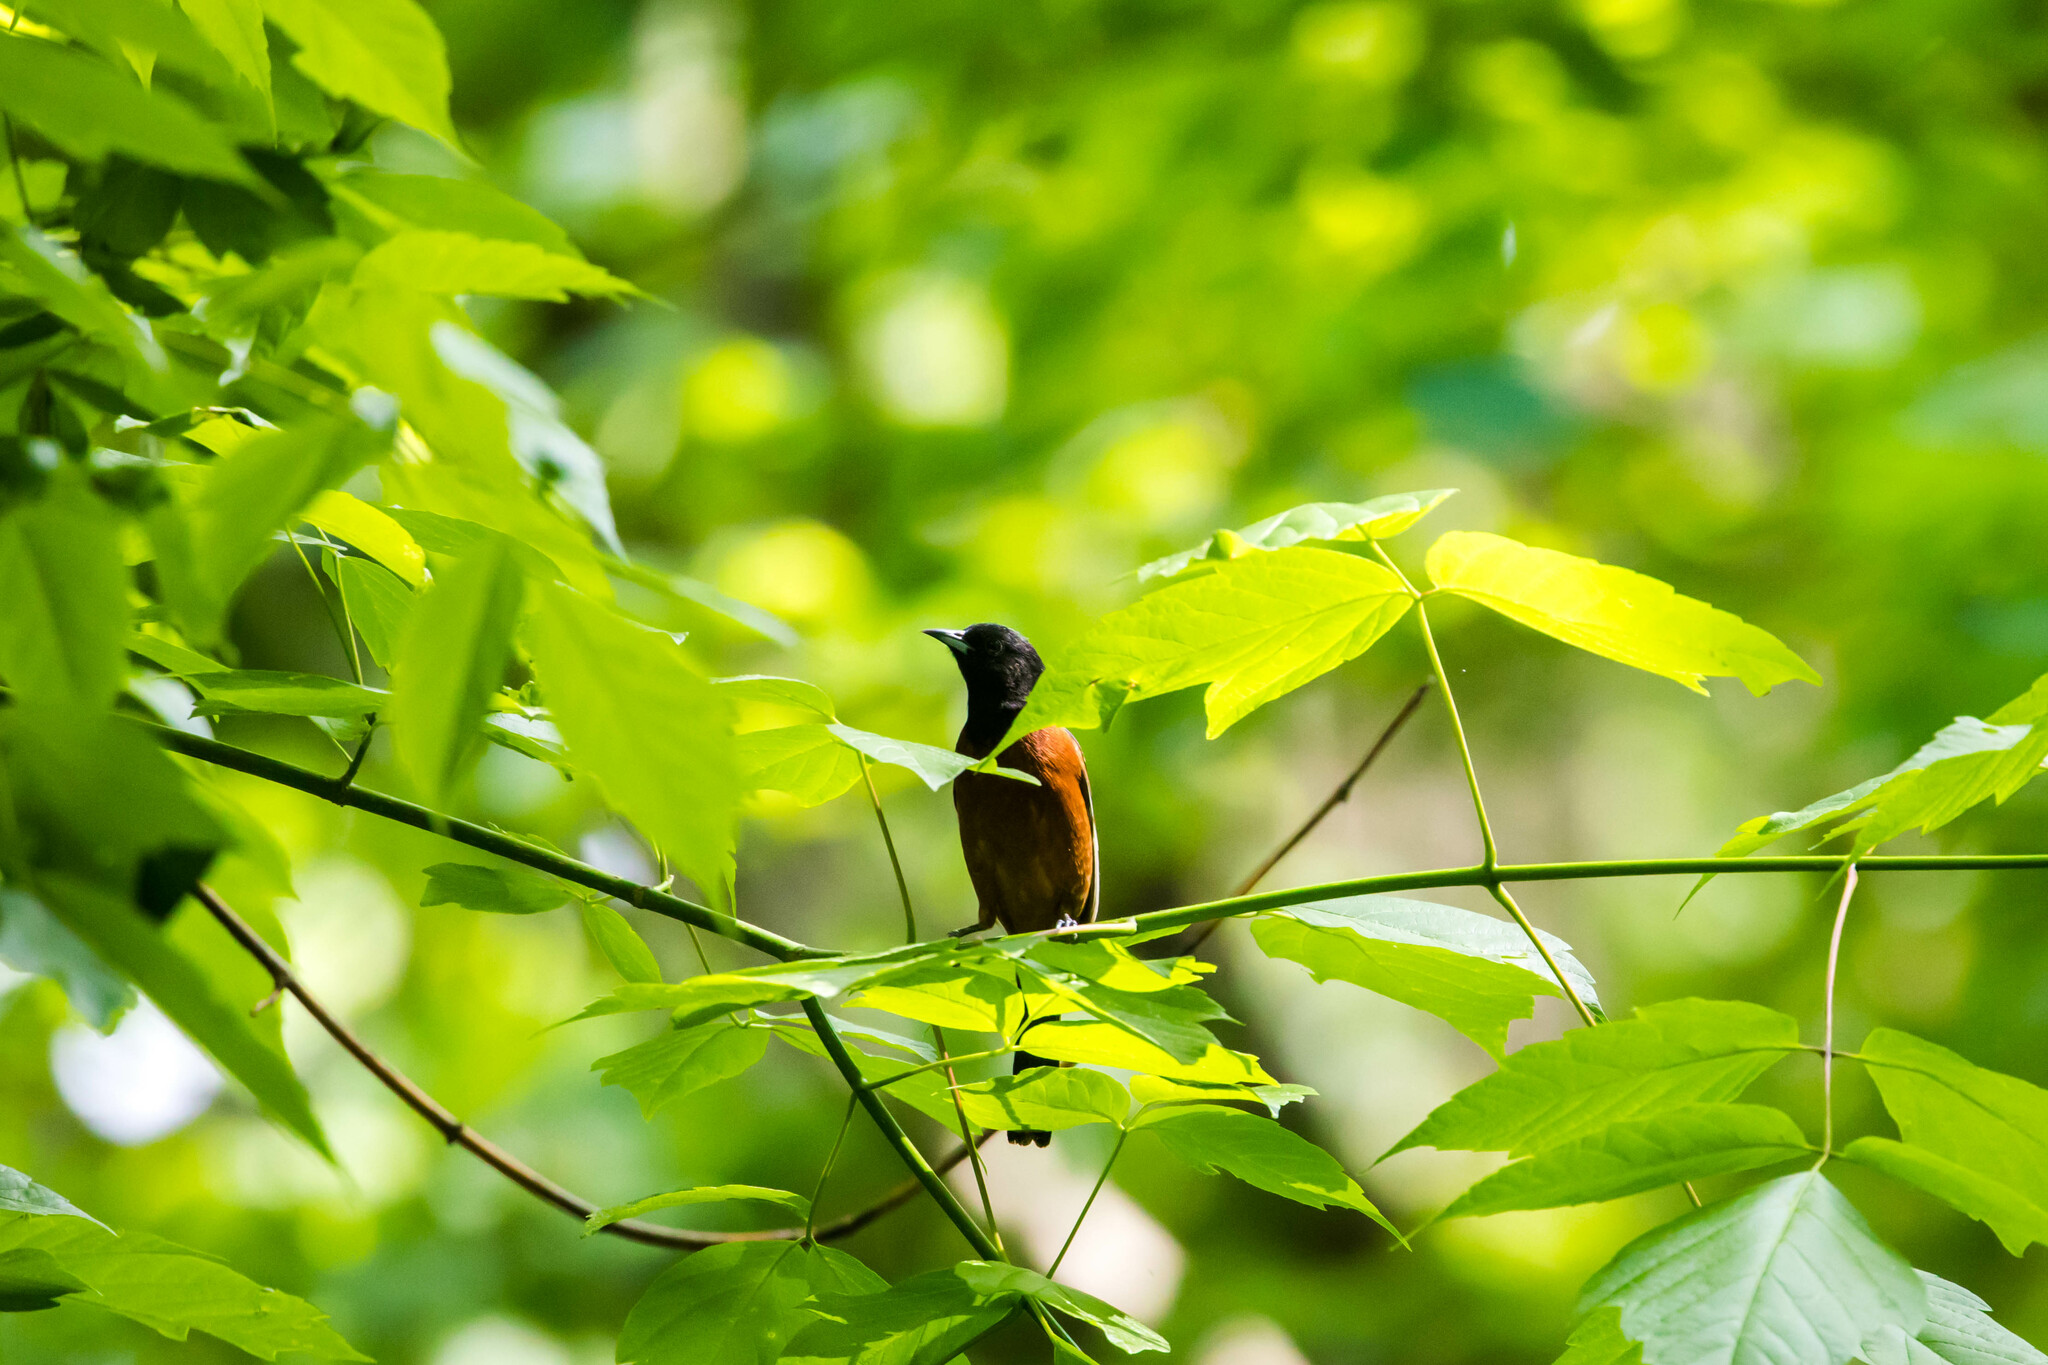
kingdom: Animalia
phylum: Chordata
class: Aves
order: Passeriformes
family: Icteridae
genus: Icterus
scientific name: Icterus spurius
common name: Orchard oriole
